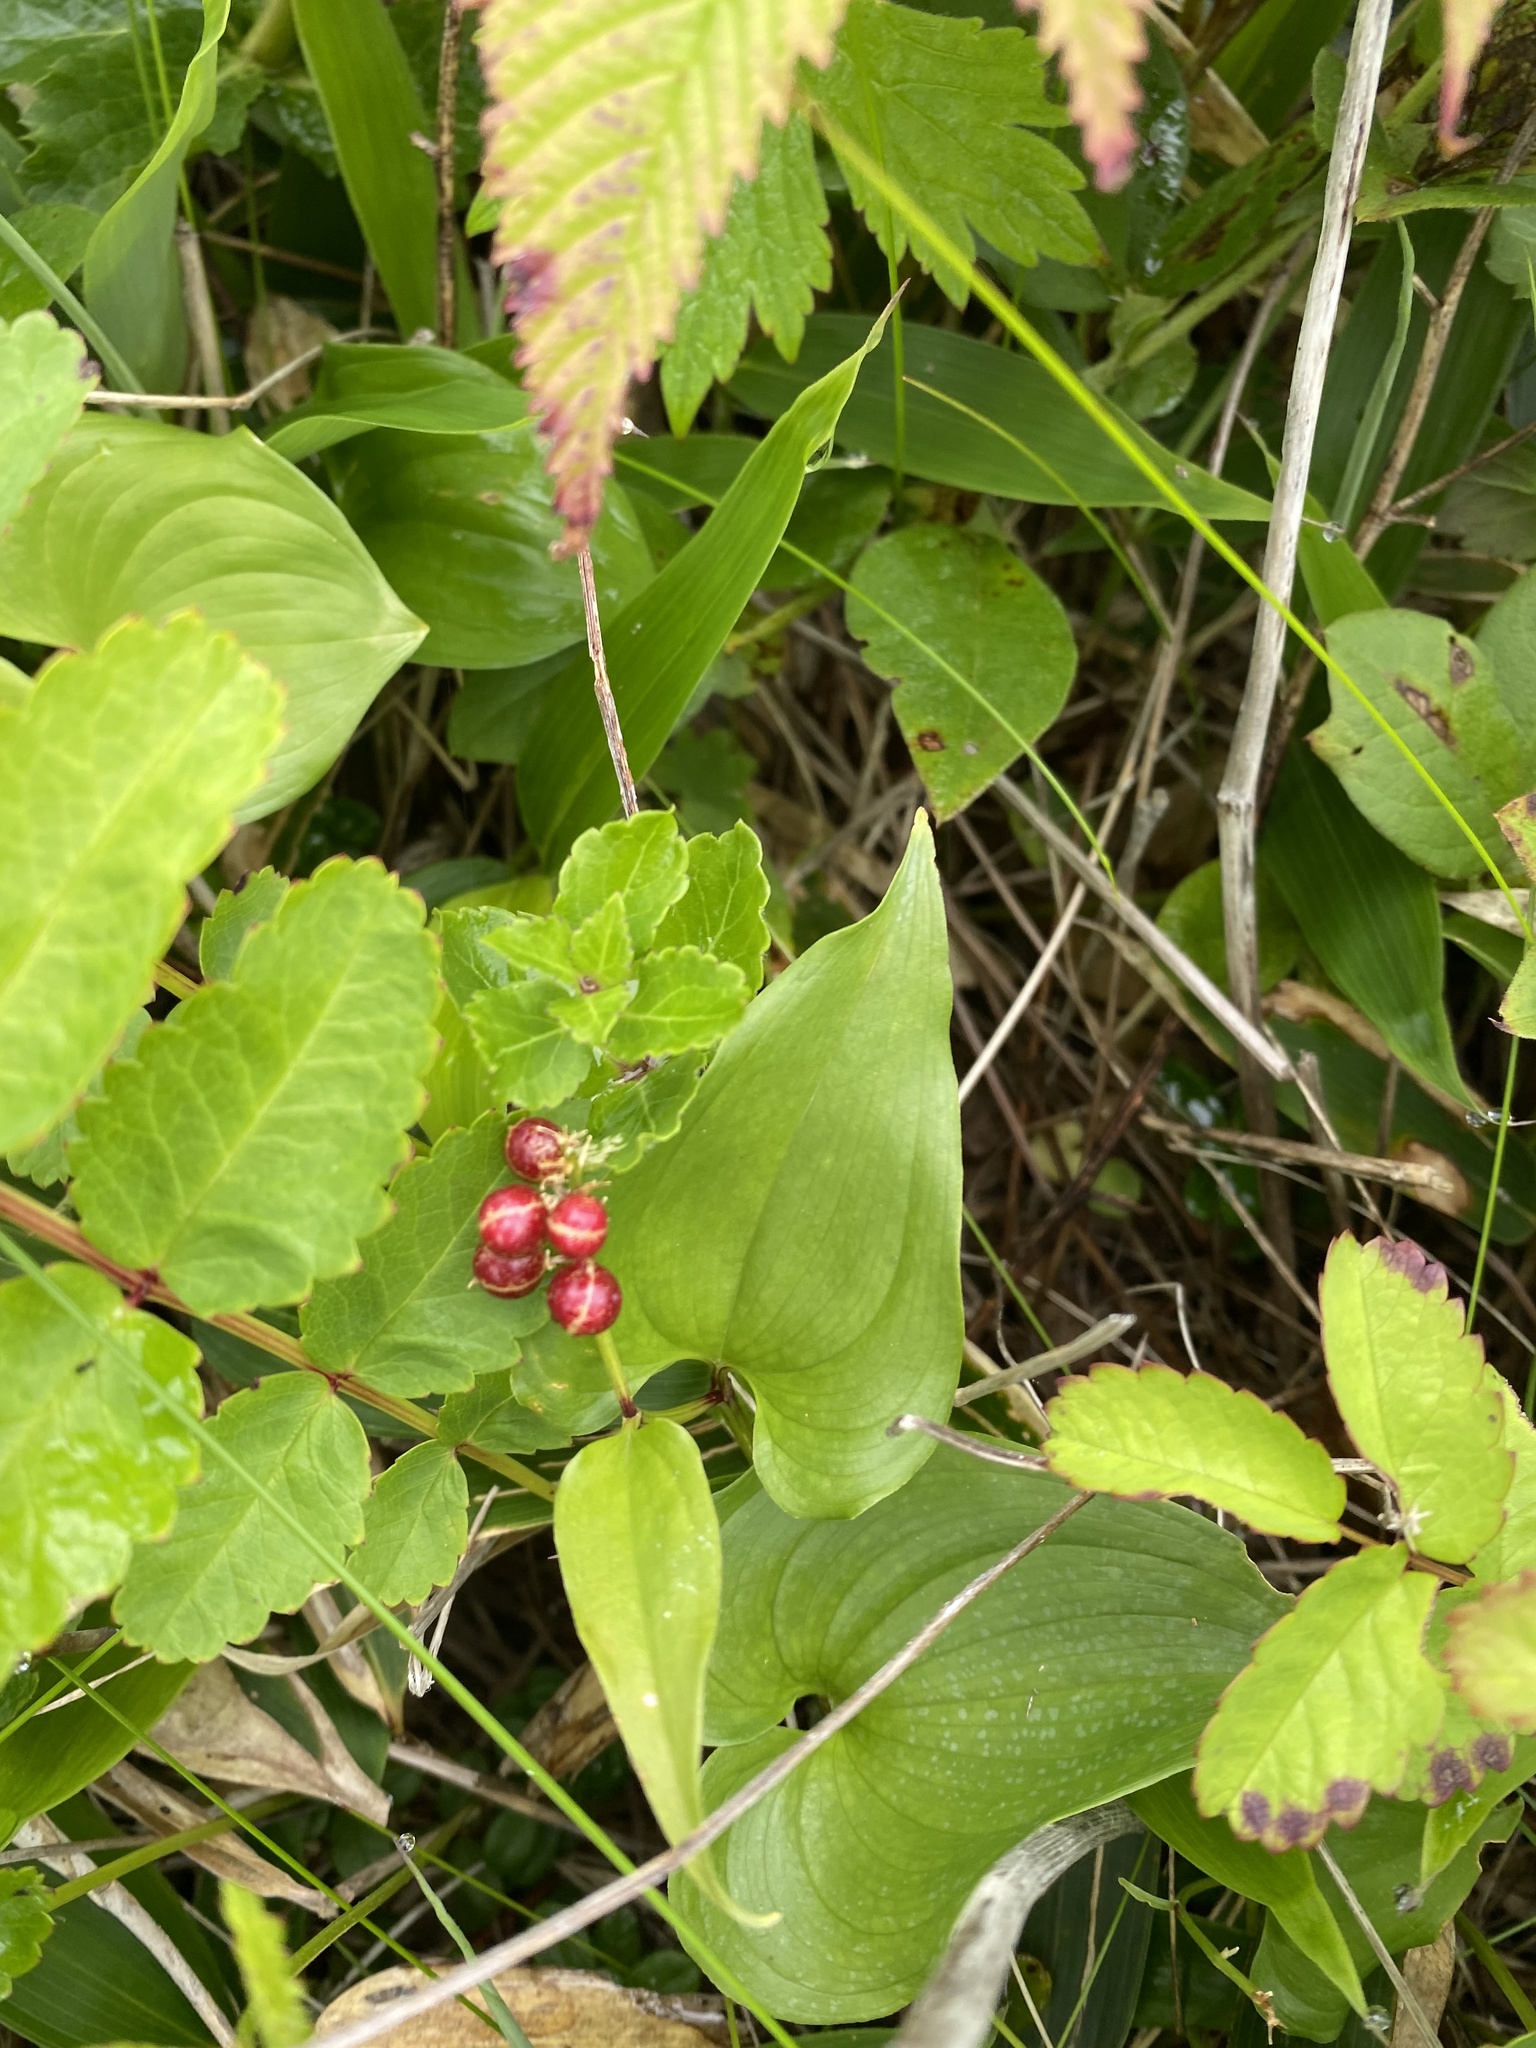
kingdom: Plantae
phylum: Tracheophyta
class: Liliopsida
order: Asparagales
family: Asparagaceae
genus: Maianthemum
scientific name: Maianthemum dilatatum
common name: False lily-of-the-valley
